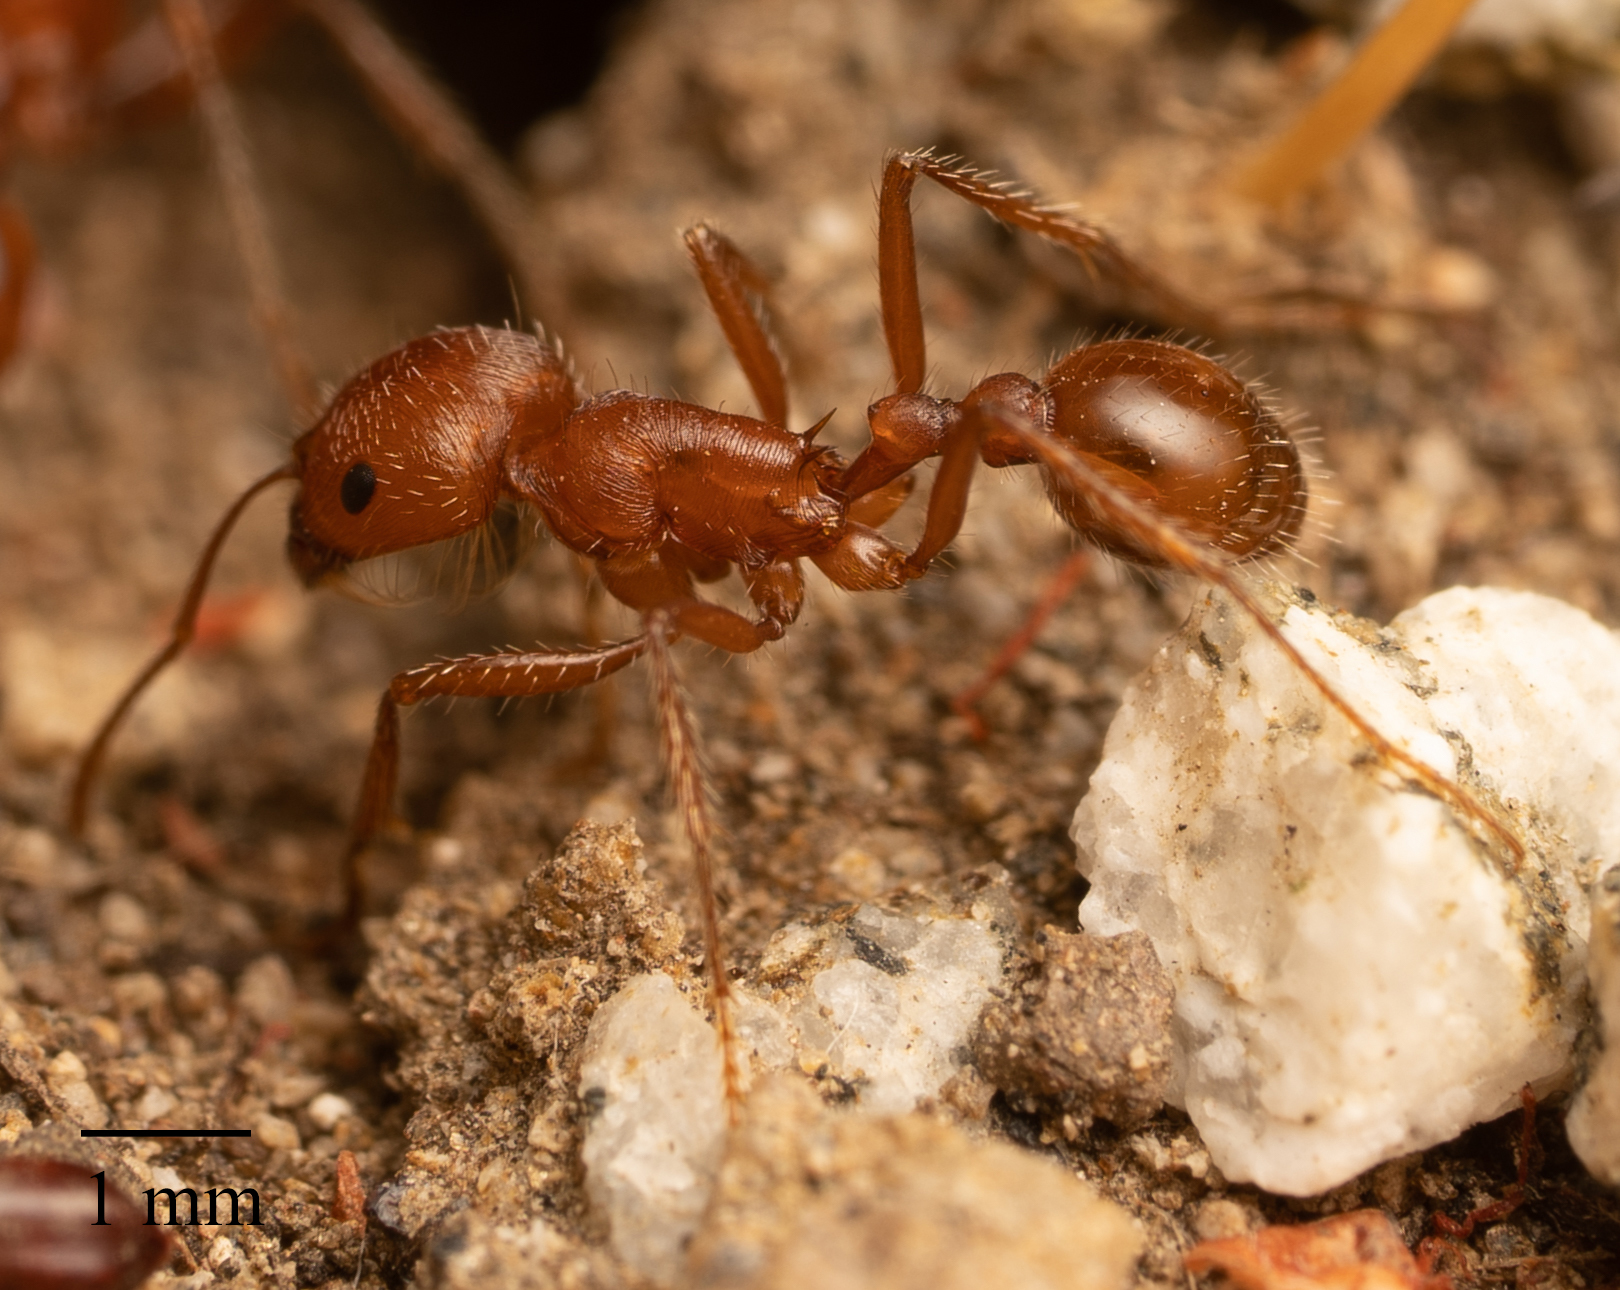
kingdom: Animalia
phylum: Arthropoda
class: Insecta
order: Hymenoptera
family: Formicidae
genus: Pogonomyrmex
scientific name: Pogonomyrmex subnitidus
